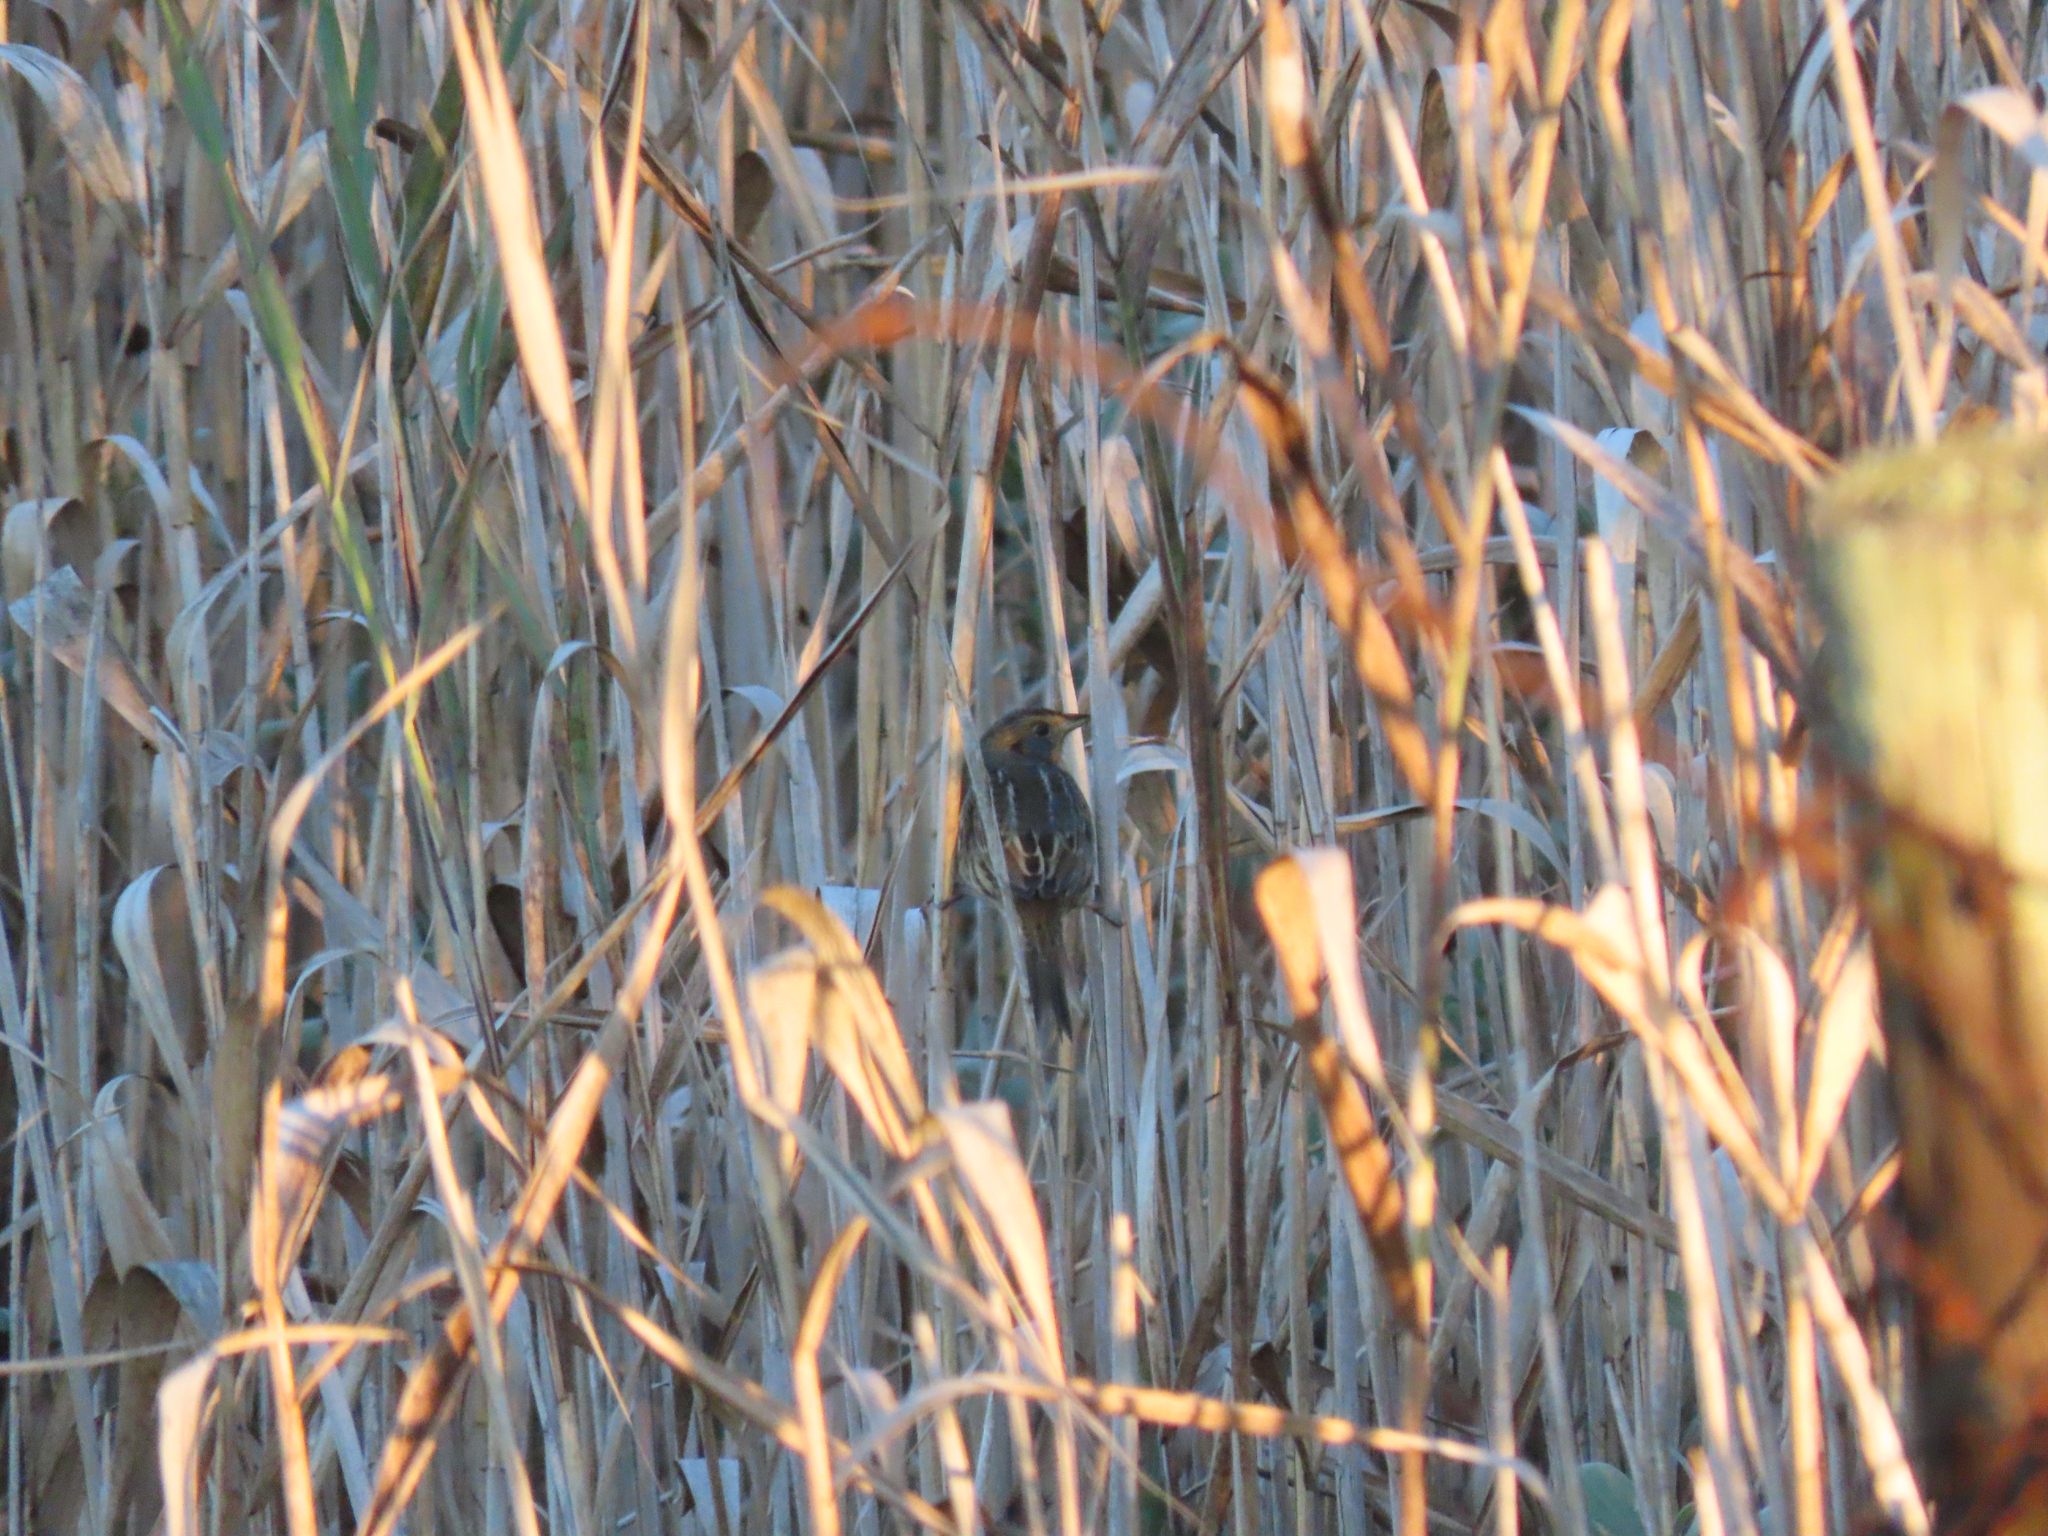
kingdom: Animalia
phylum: Chordata
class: Aves
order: Passeriformes
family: Passerellidae
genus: Ammospiza
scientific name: Ammospiza nelsoni
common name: Nelson's sparrow
